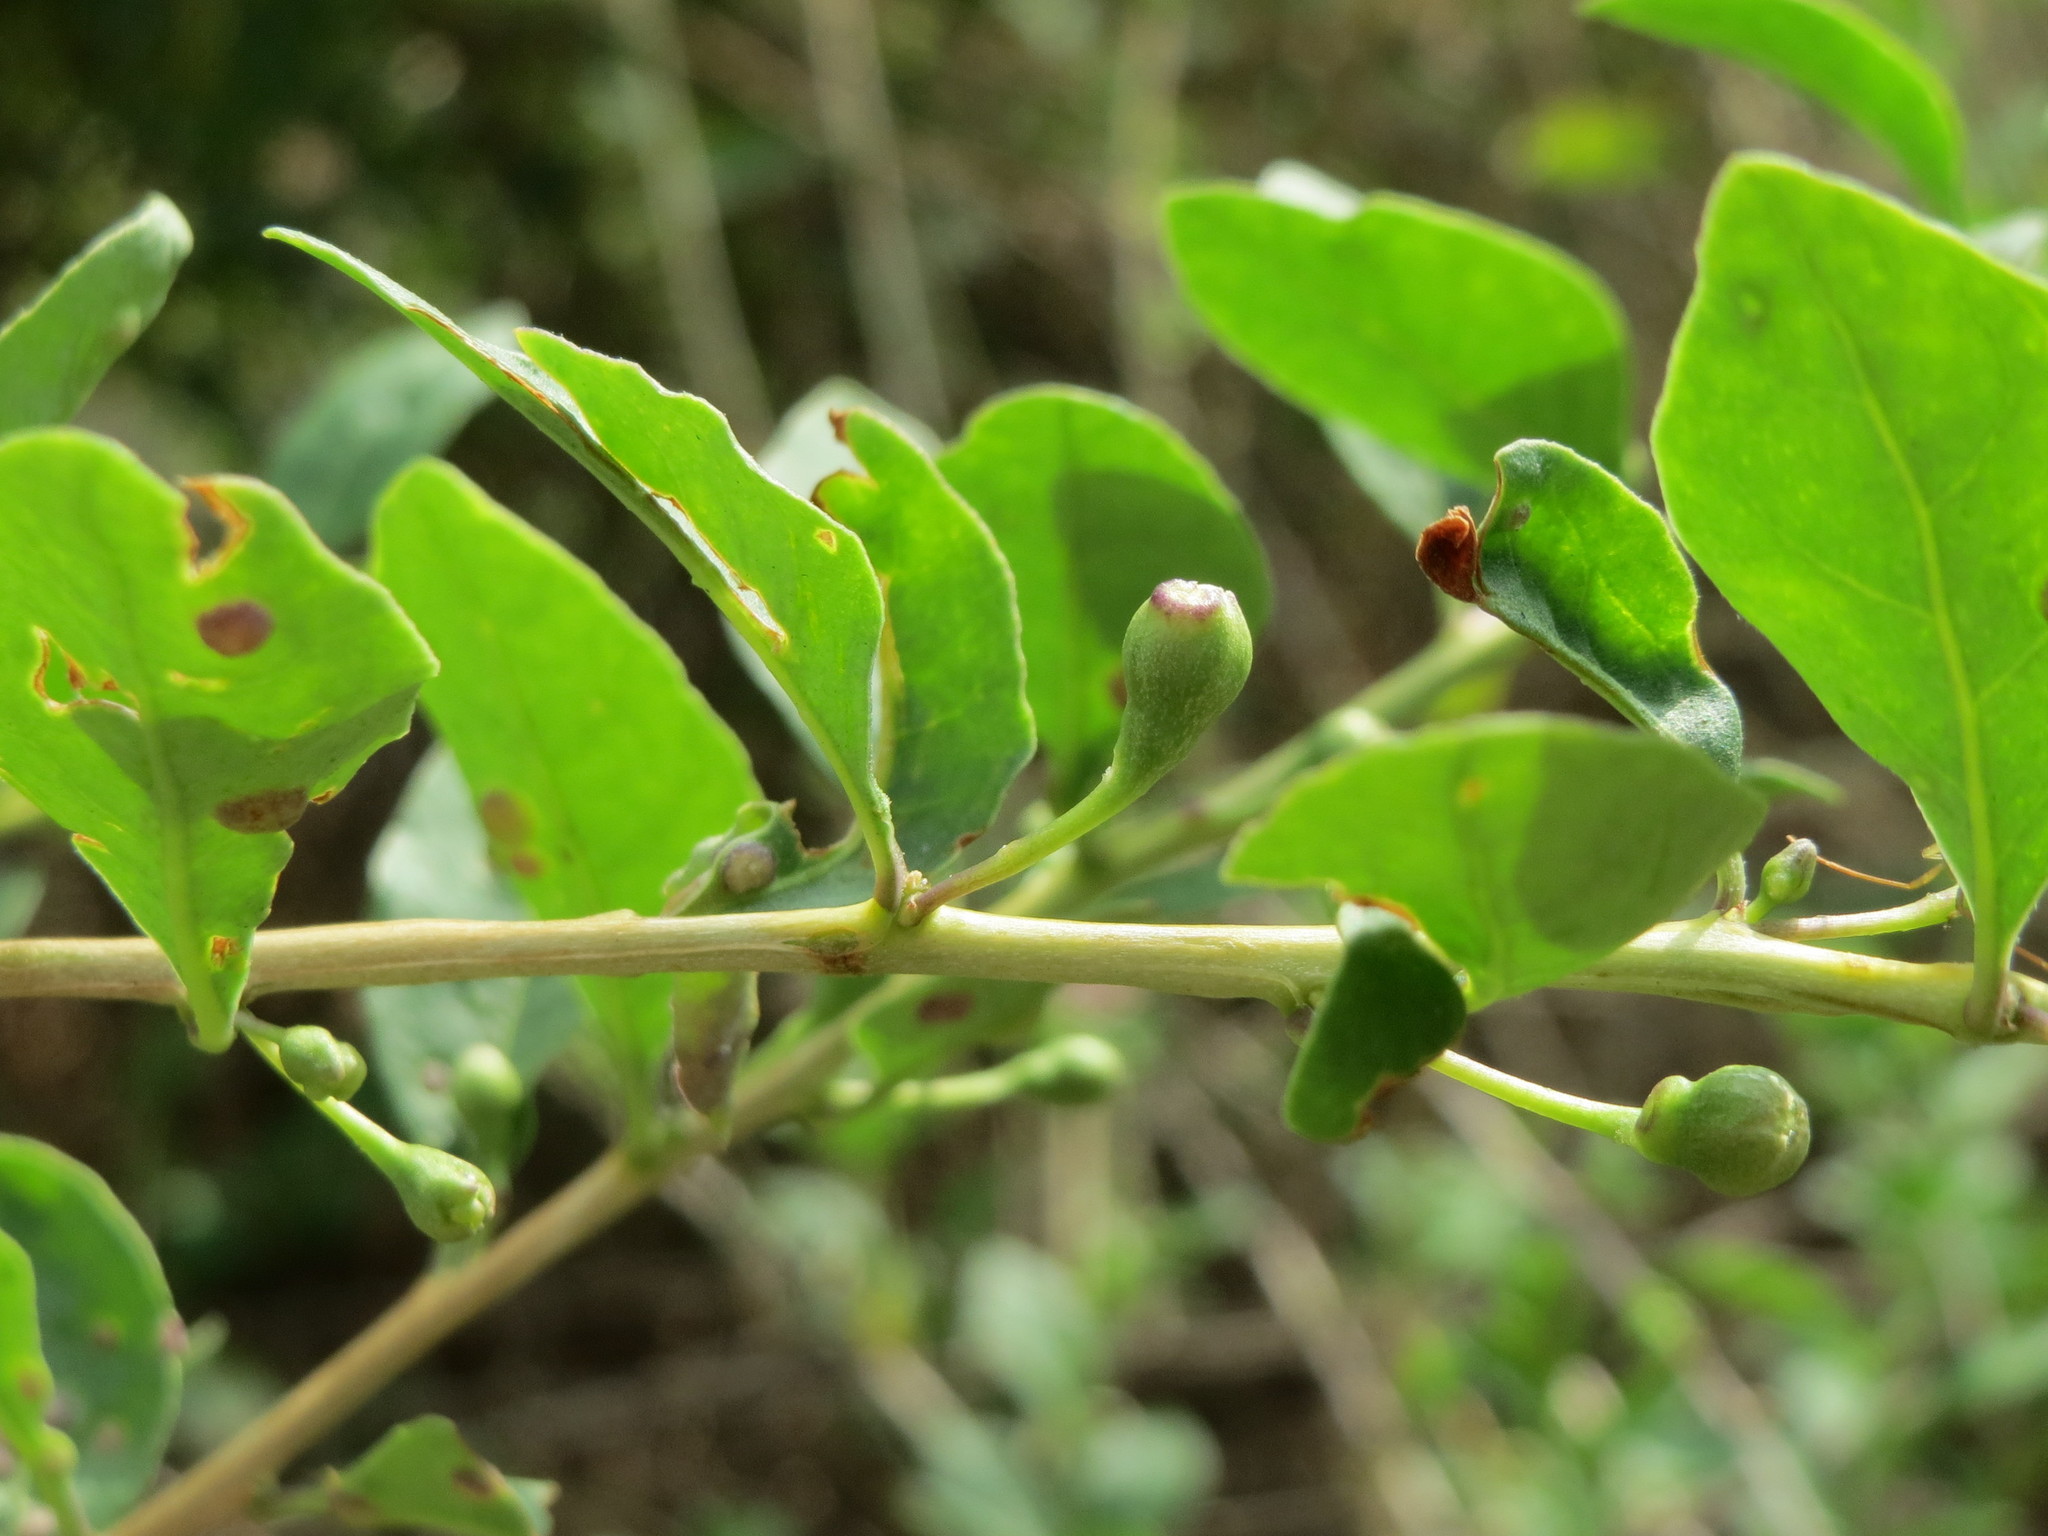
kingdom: Plantae
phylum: Tracheophyta
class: Magnoliopsida
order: Solanales
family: Solanaceae
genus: Lycium
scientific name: Lycium barbarum
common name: Duke of argyll's teaplant
